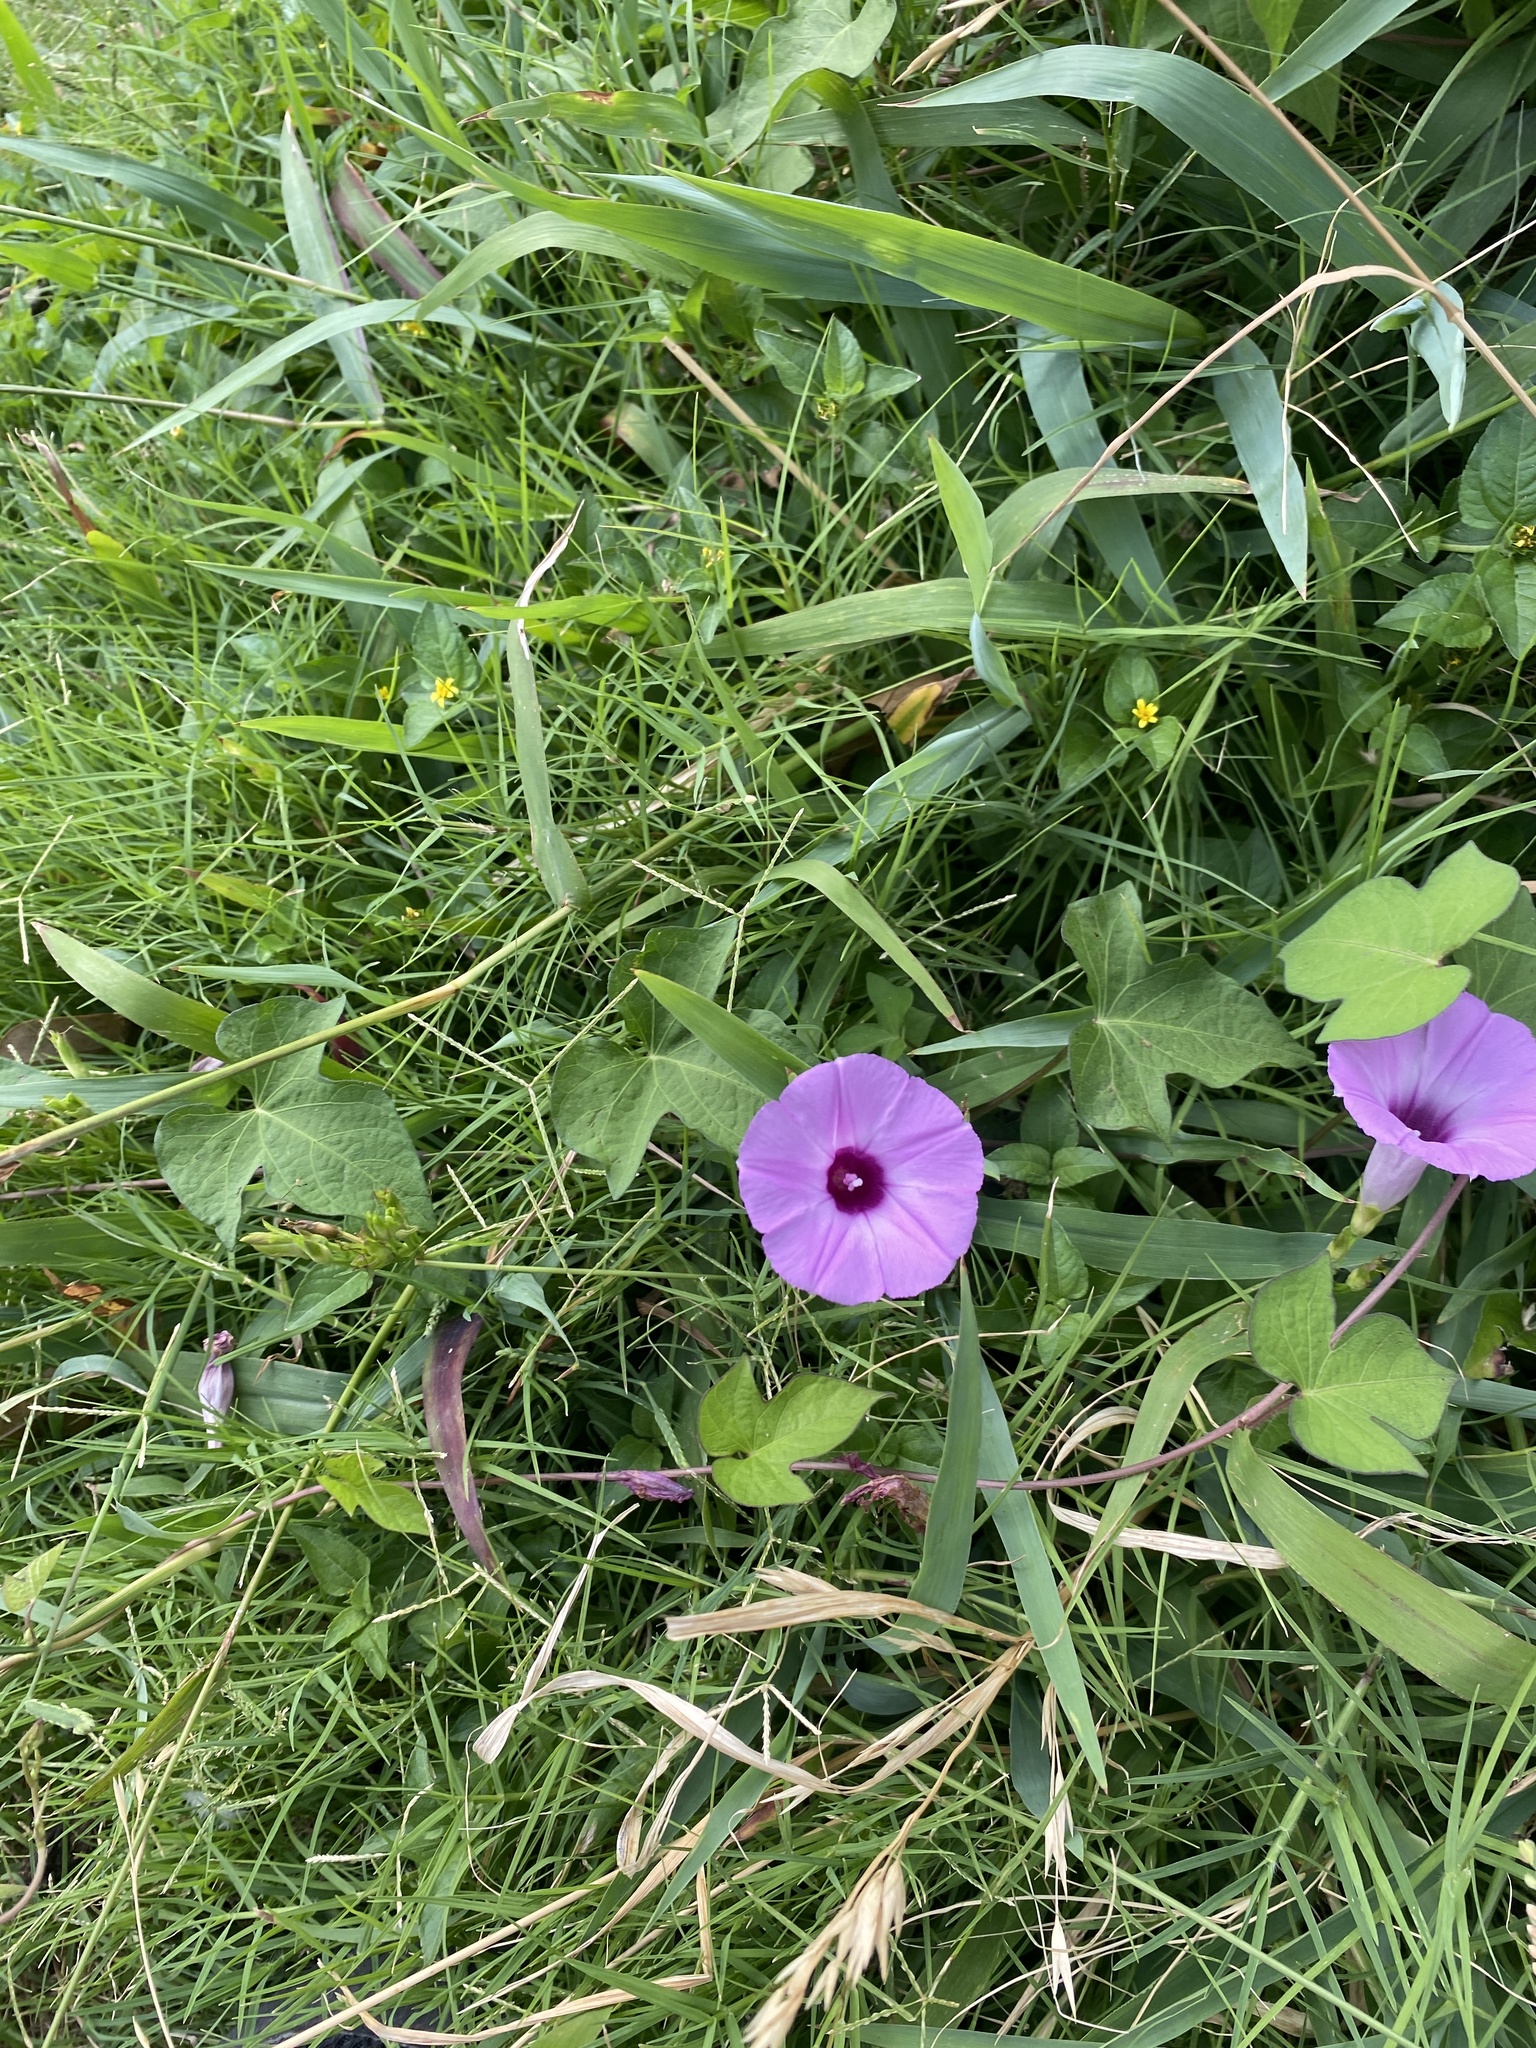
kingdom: Plantae
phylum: Tracheophyta
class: Magnoliopsida
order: Solanales
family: Convolvulaceae
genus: Ipomoea
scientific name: Ipomoea cordatotriloba
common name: Cotton morning glory
